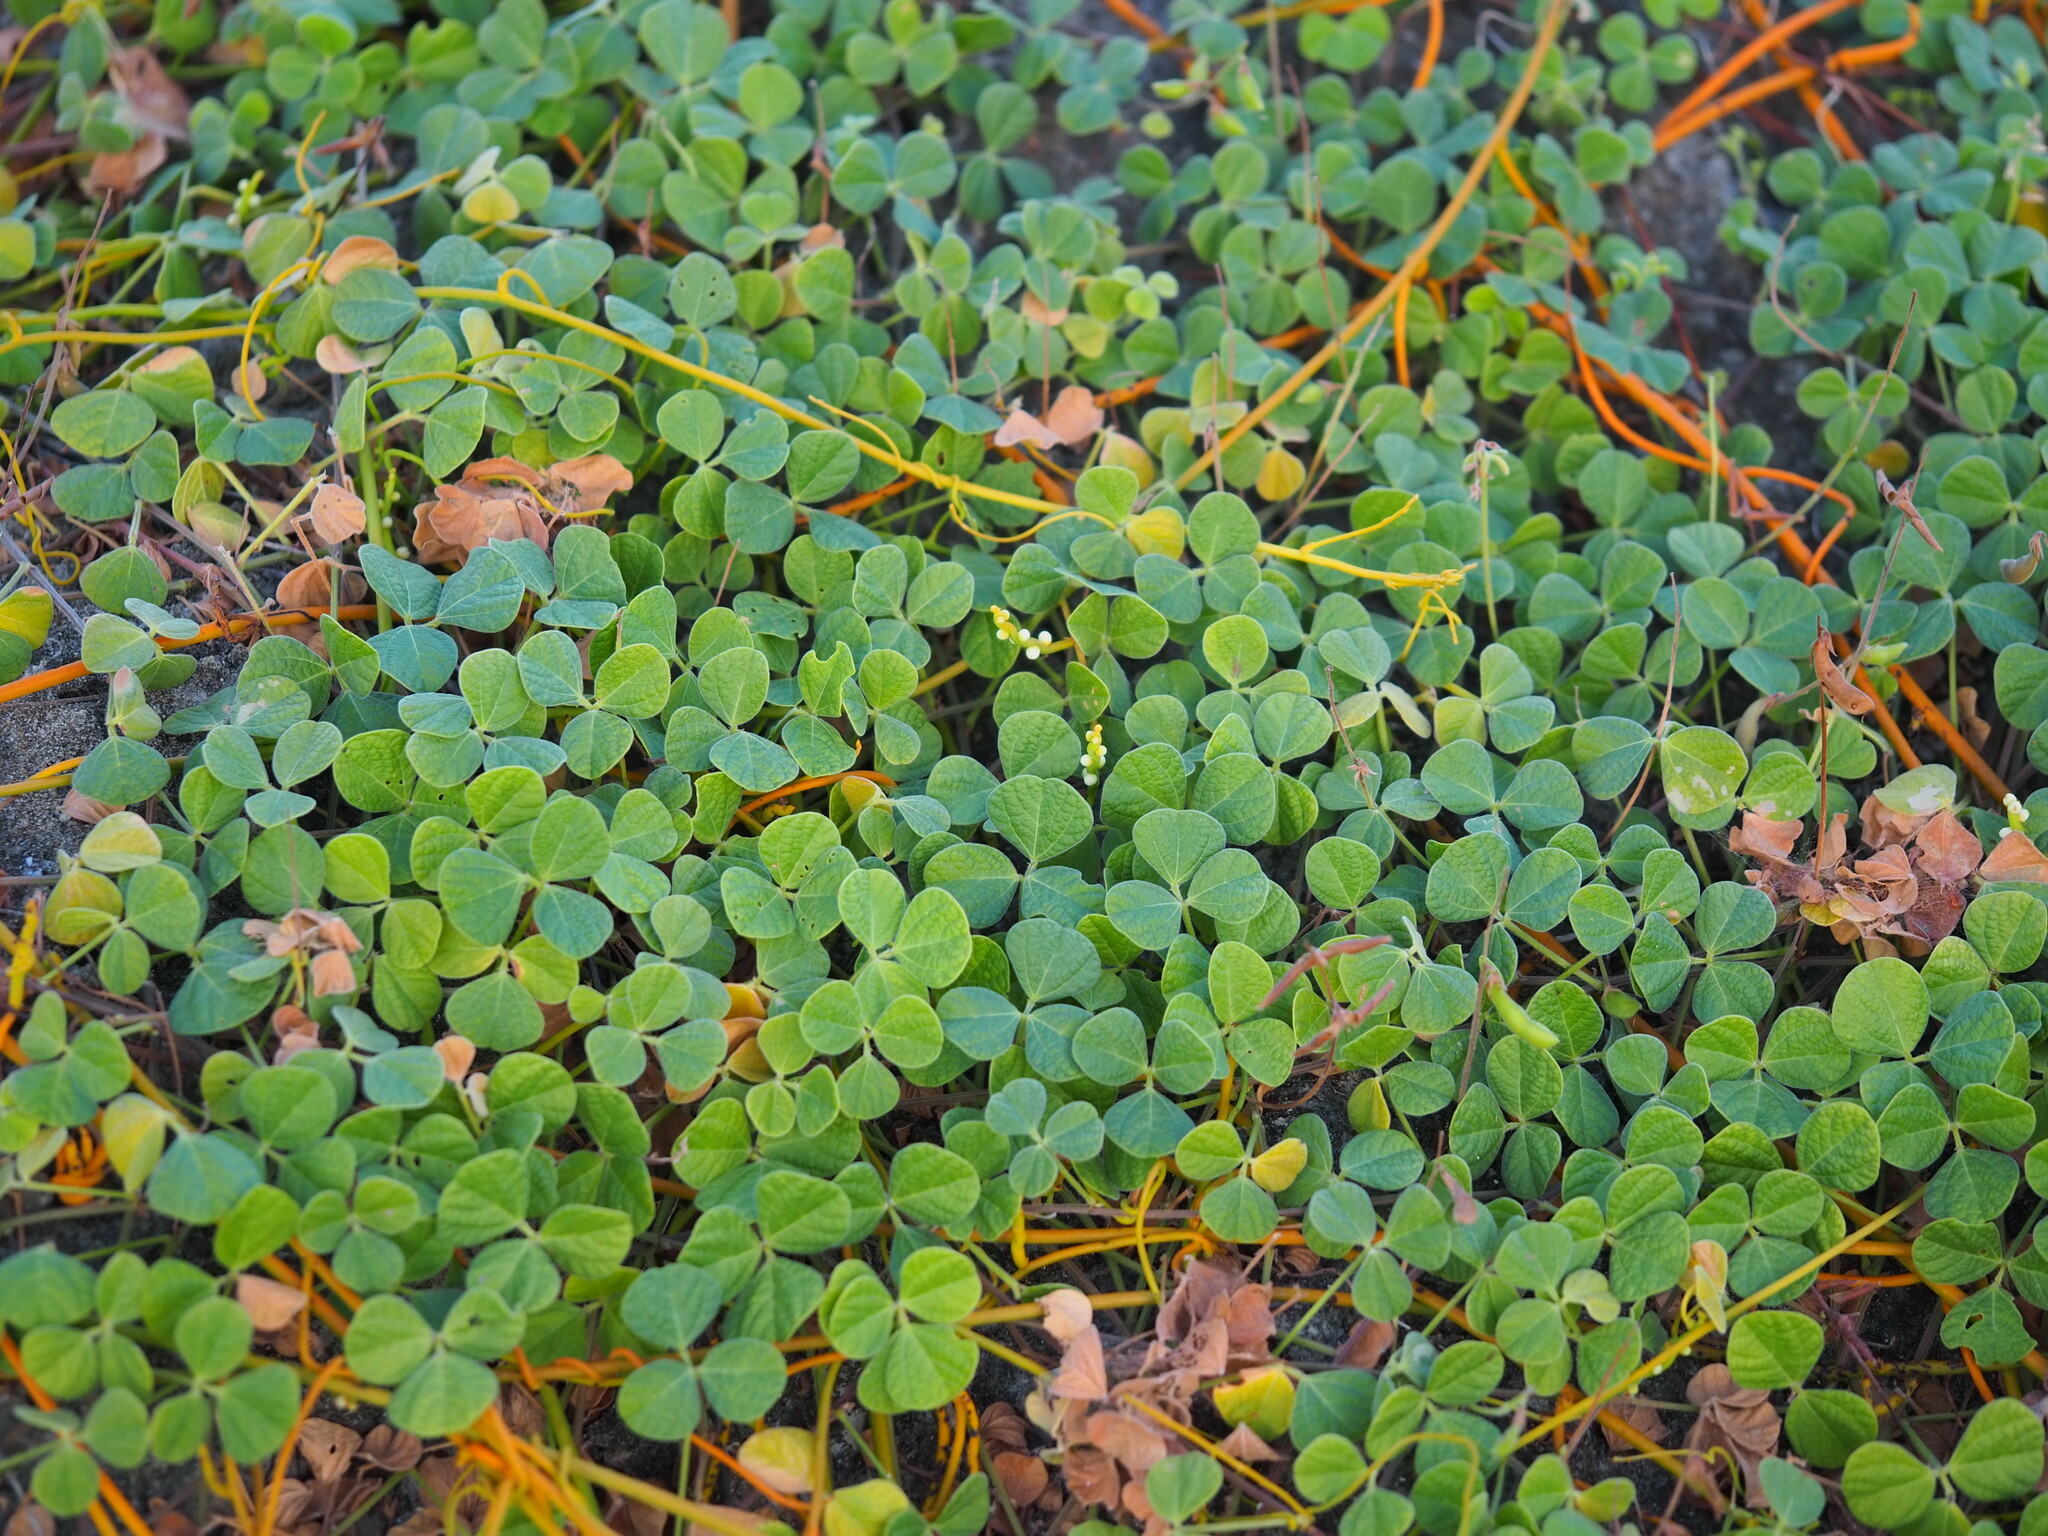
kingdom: Plantae
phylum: Tracheophyta
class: Magnoliopsida
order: Fabales
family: Fabaceae
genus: Rhynchosia
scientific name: Rhynchosia minima
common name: Least snoutbean
